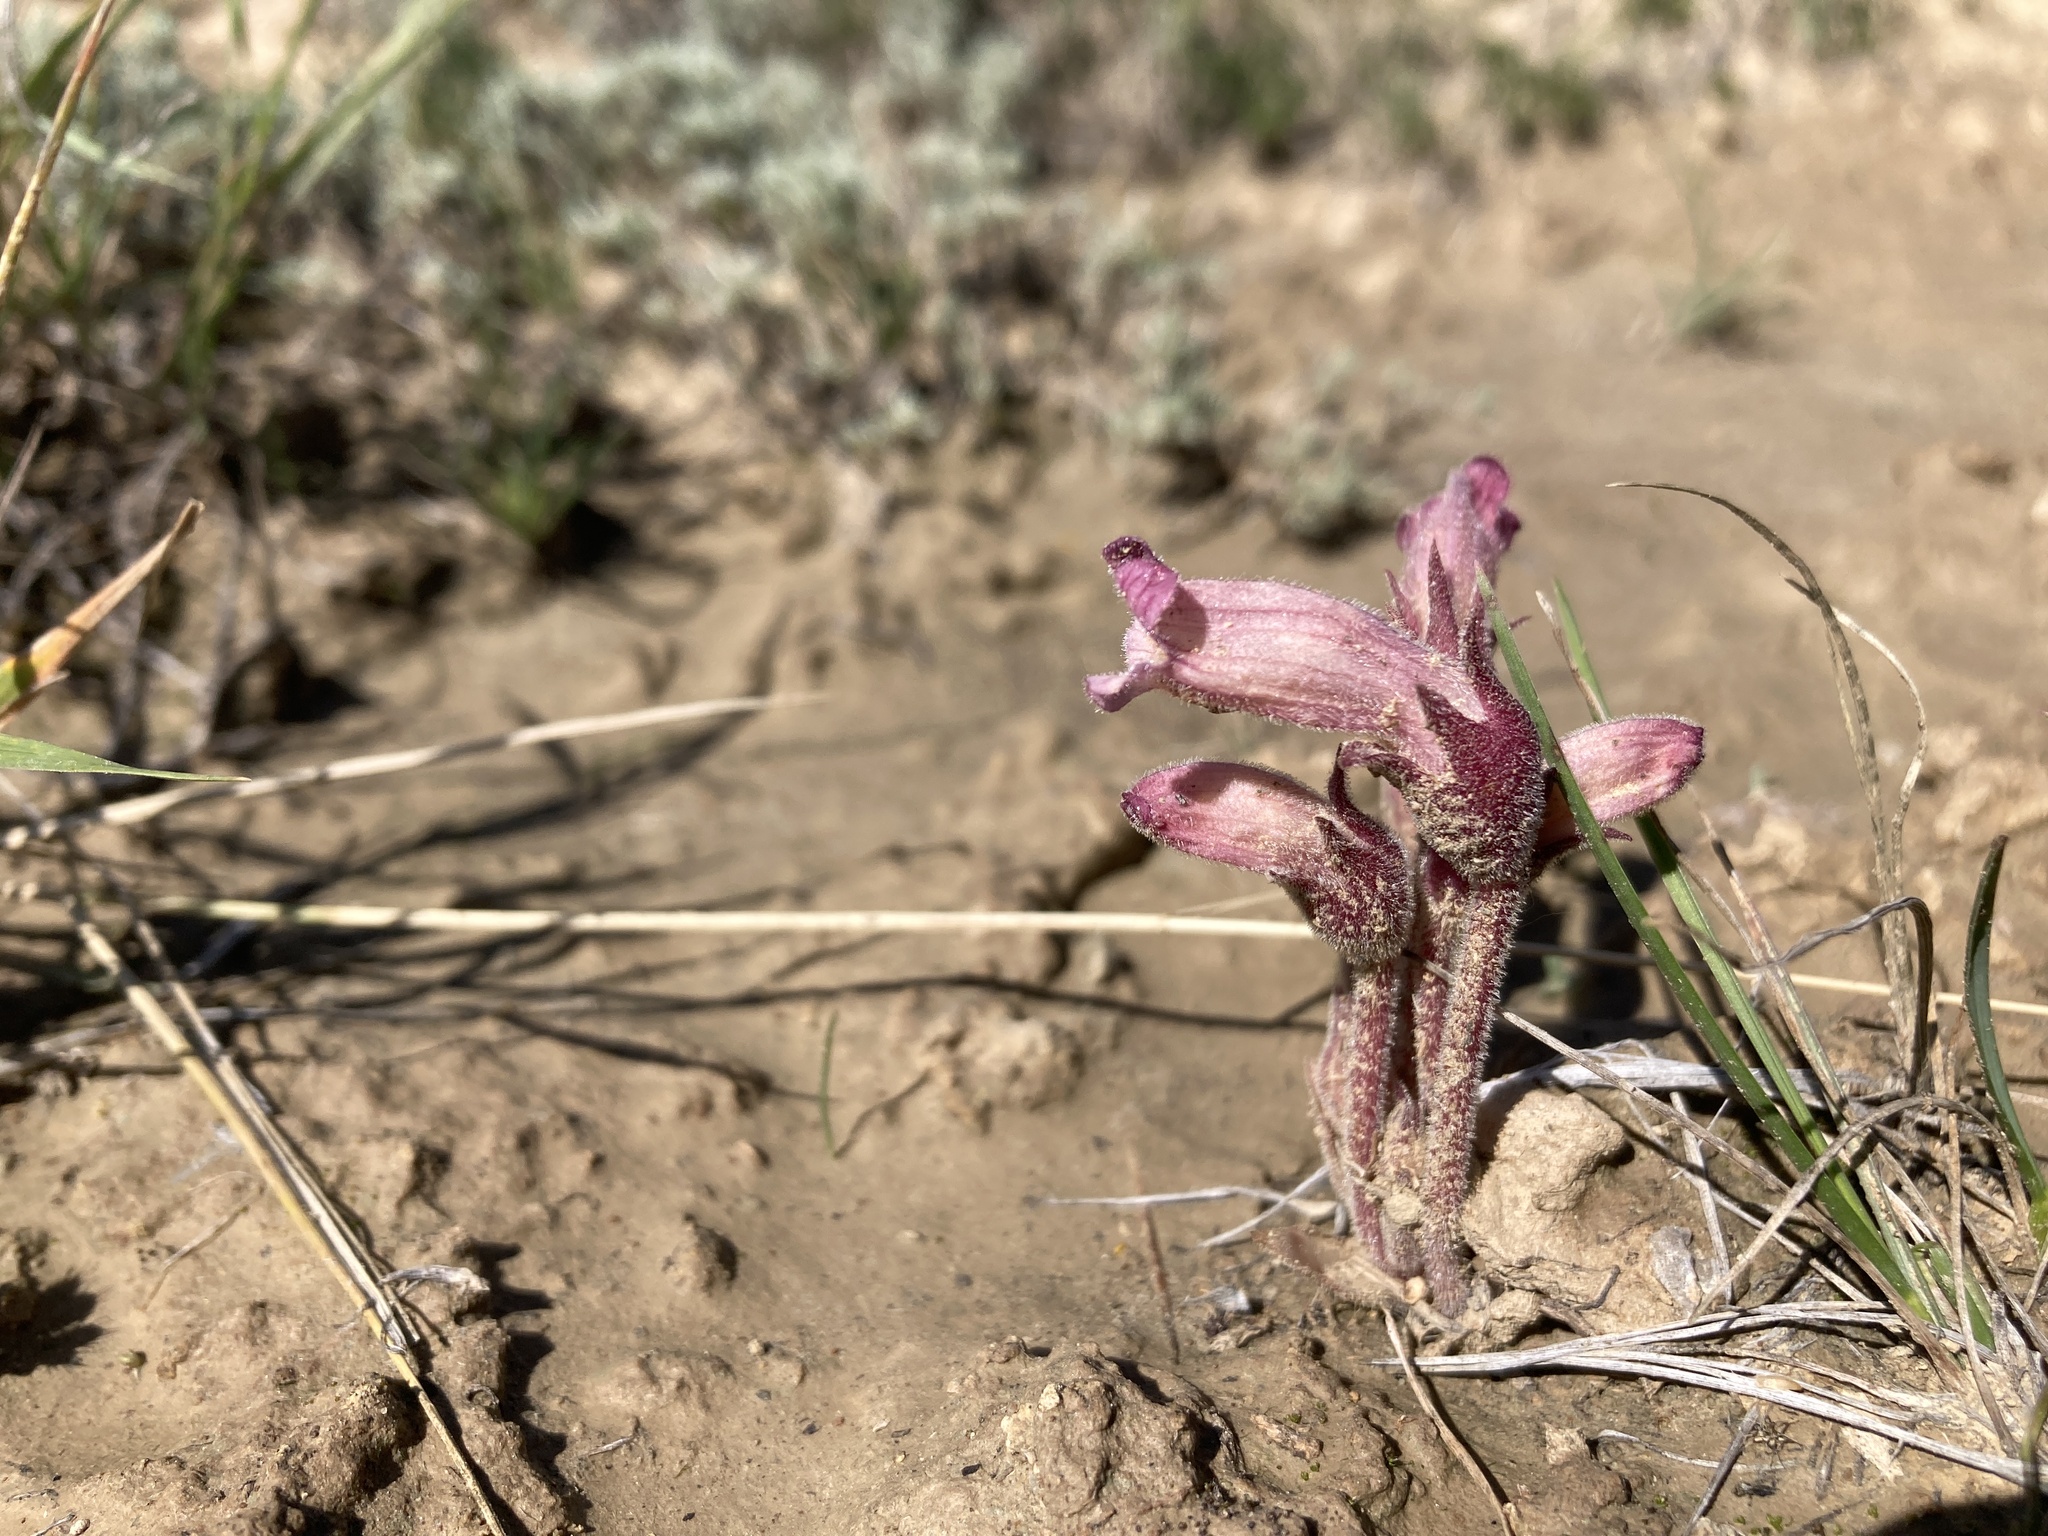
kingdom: Plantae
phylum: Tracheophyta
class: Magnoliopsida
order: Lamiales
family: Orobanchaceae
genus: Aphyllon
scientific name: Aphyllon fasciculatum
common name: Clustered broomrape
